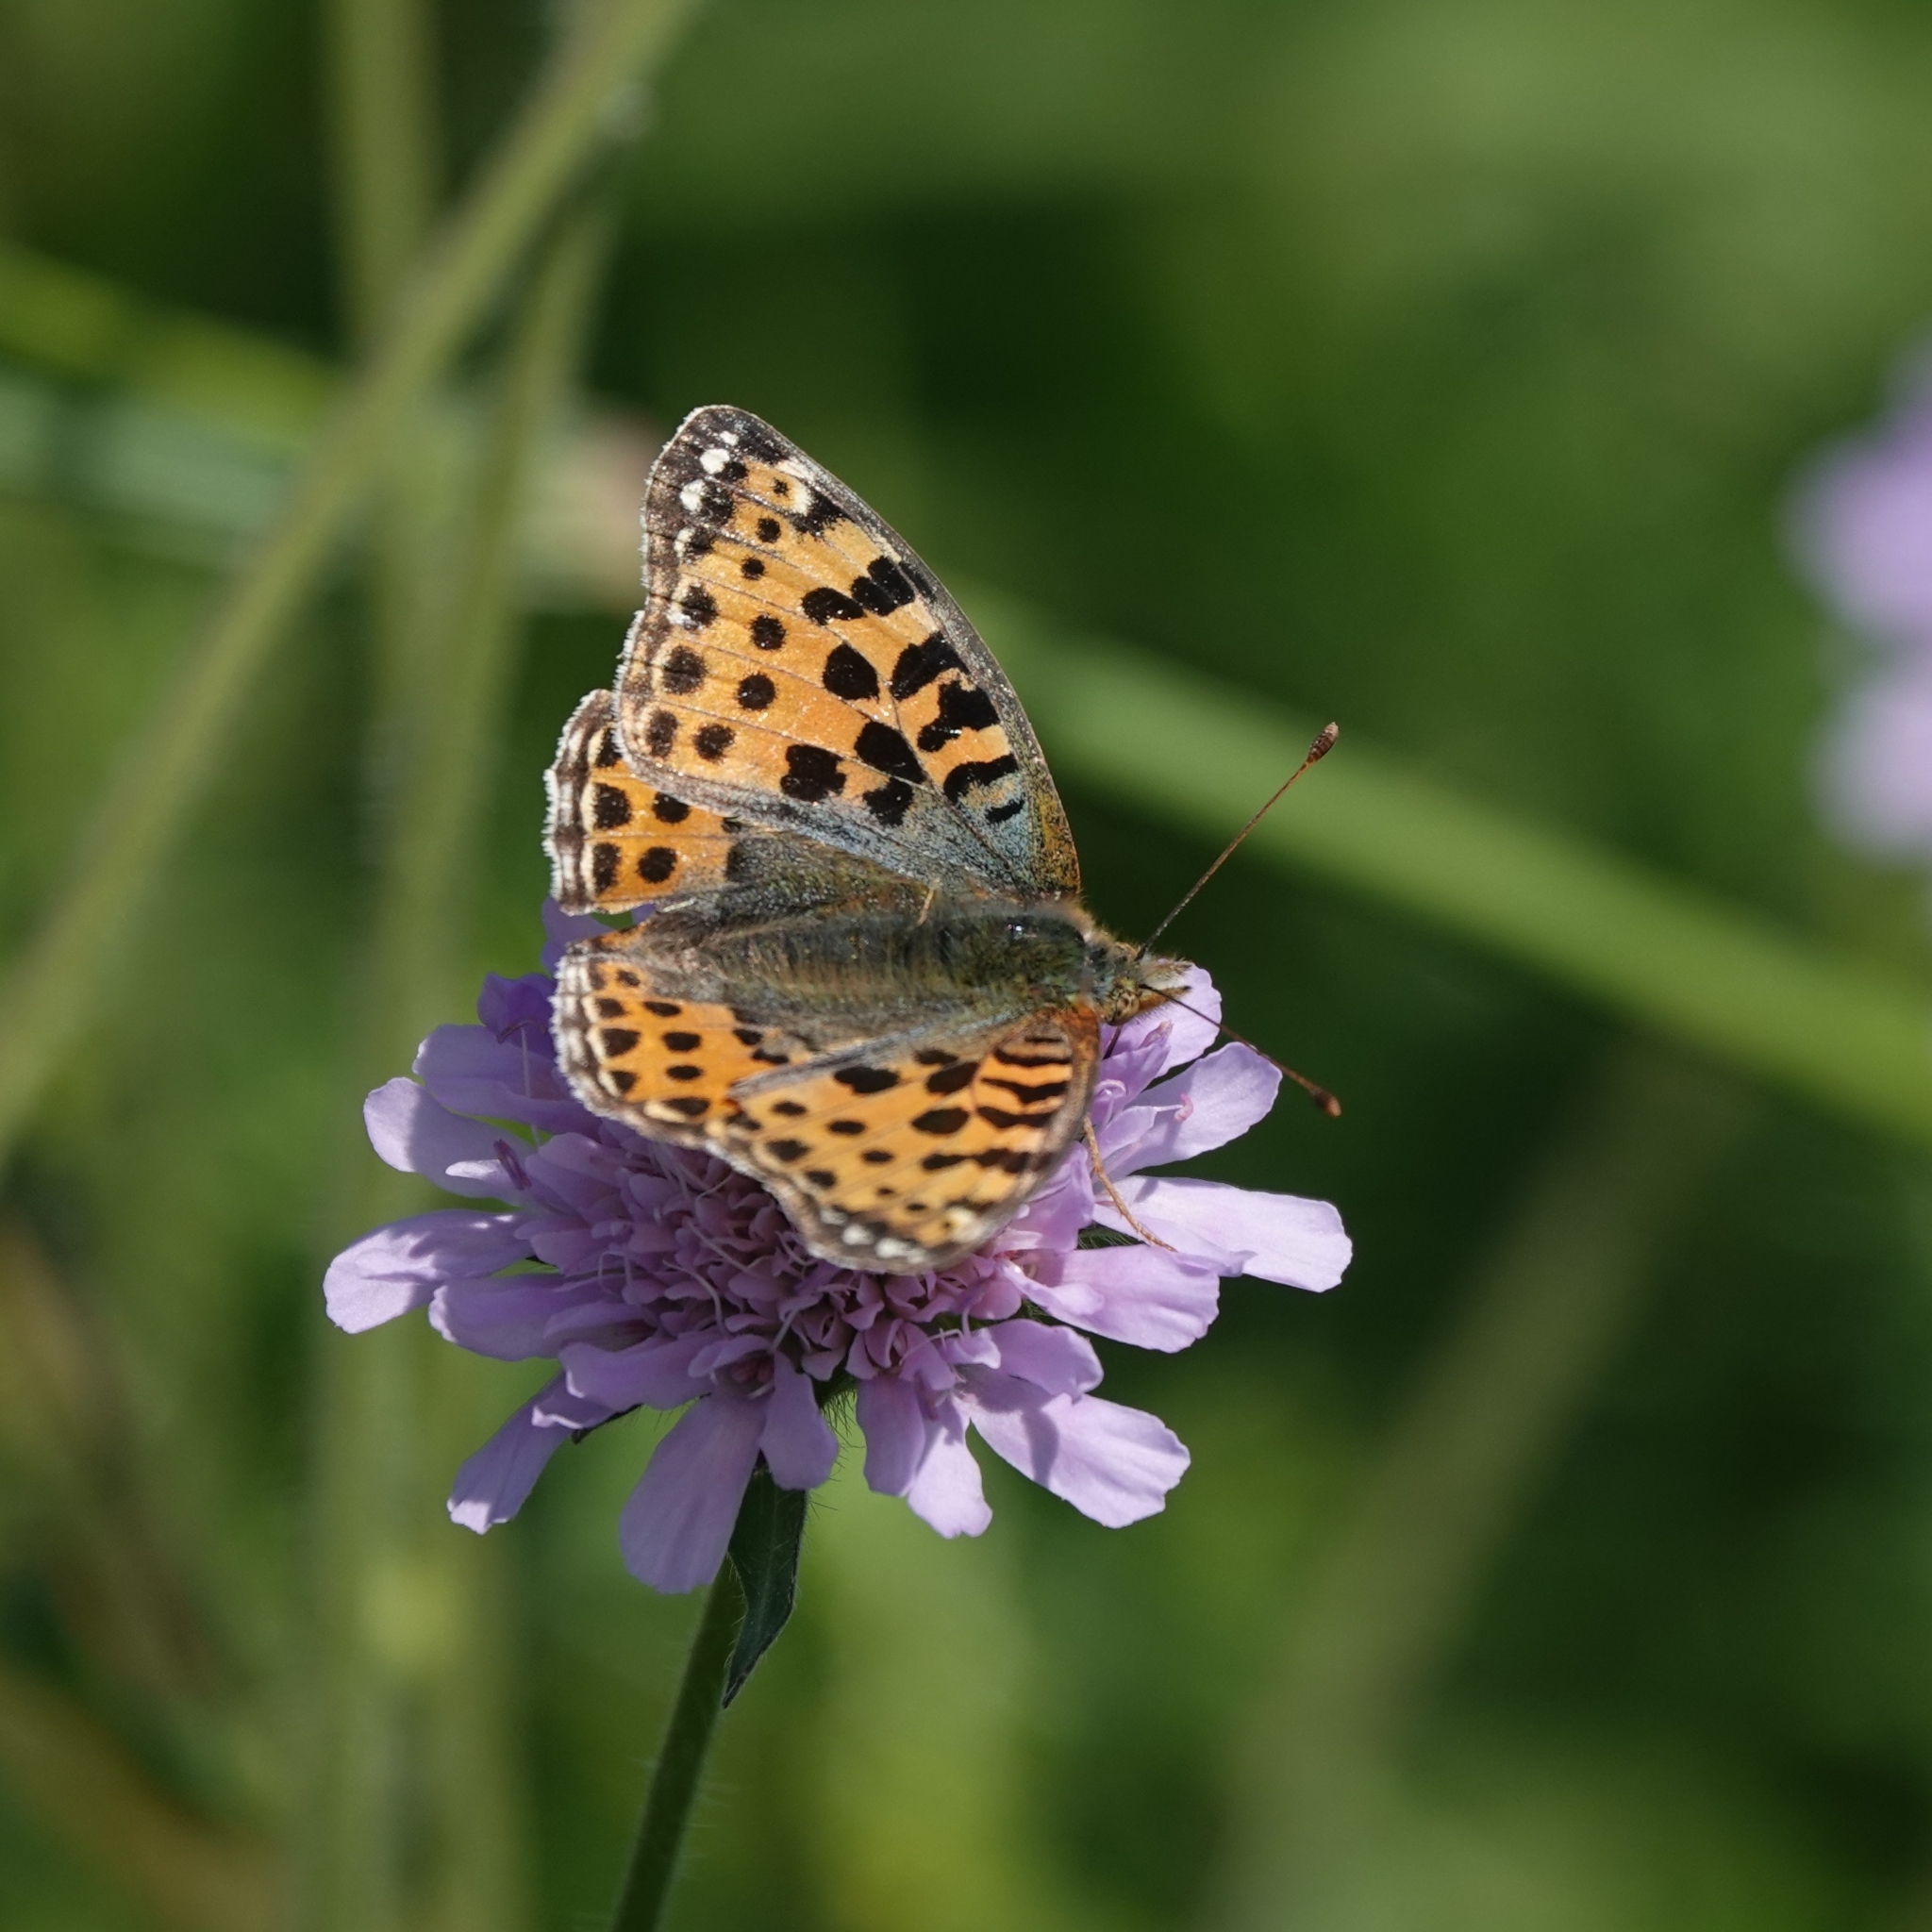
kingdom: Animalia
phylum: Arthropoda
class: Insecta
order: Lepidoptera
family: Nymphalidae
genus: Issoria
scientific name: Issoria lathonia
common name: Queen of spain fritillary
